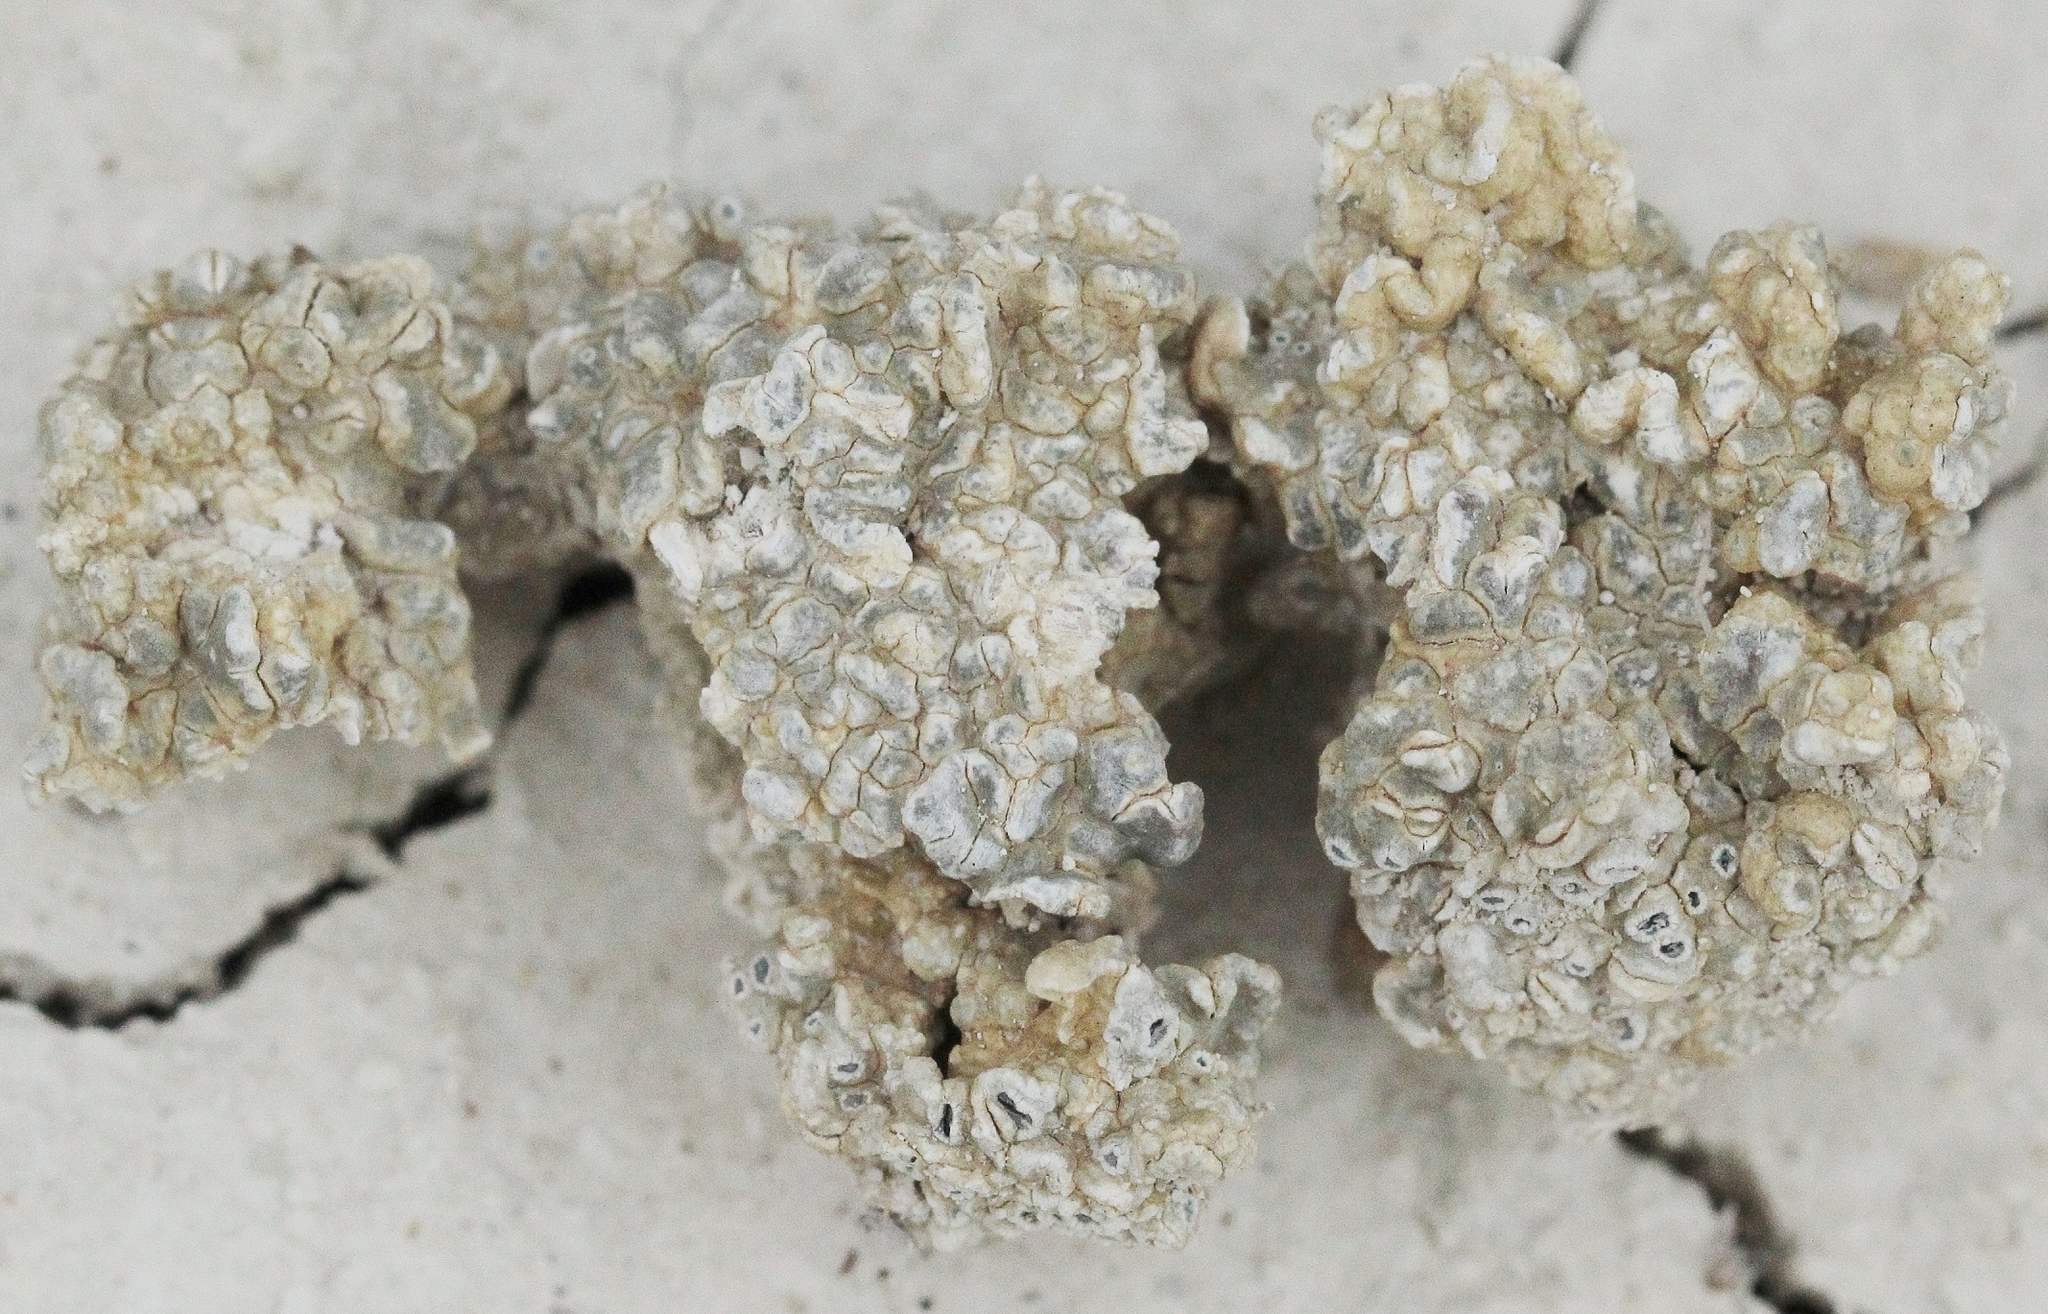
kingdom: Fungi
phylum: Ascomycota
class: Lecanoromycetes
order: Pertusariales
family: Megasporaceae
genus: Aspicilia
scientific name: Aspicilia
